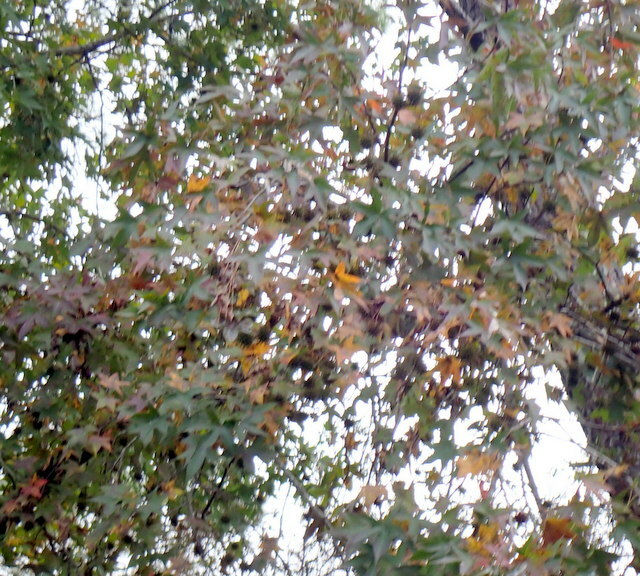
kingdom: Plantae
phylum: Tracheophyta
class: Magnoliopsida
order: Saxifragales
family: Altingiaceae
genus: Liquidambar
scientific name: Liquidambar styraciflua
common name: Sweet gum
